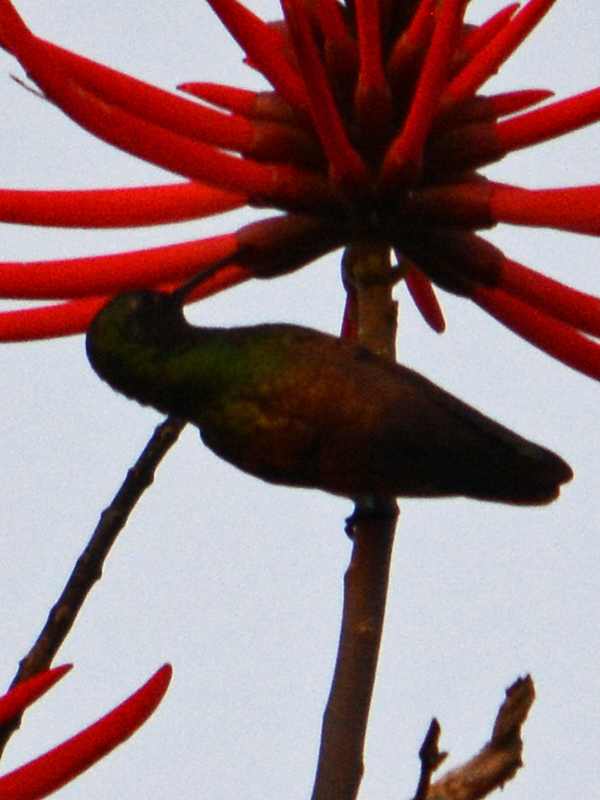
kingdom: Animalia
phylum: Chordata
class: Aves
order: Apodiformes
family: Trochilidae
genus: Saucerottia
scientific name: Saucerottia beryllina
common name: Berylline hummingbird
